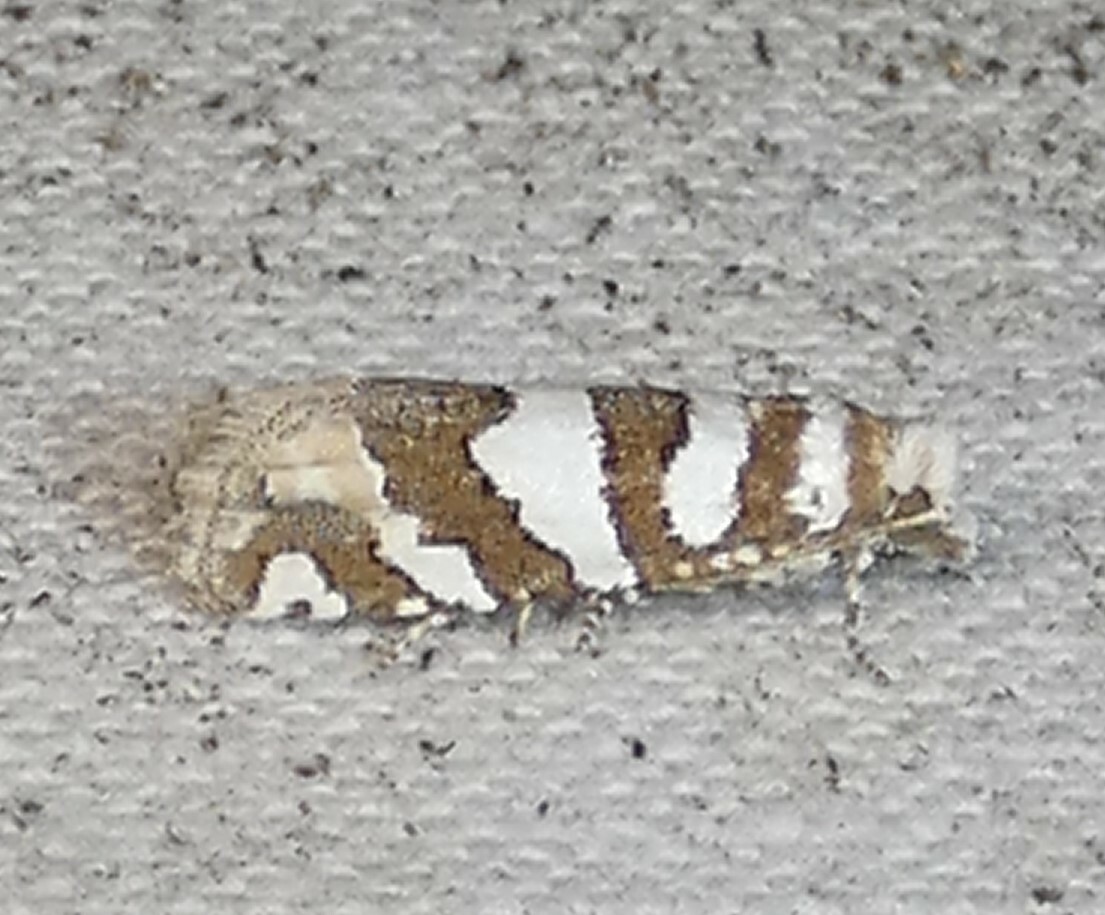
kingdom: Animalia
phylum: Arthropoda
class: Insecta
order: Lepidoptera
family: Tortricidae
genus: Pelochrista
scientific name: Pelochrista robinsonana
